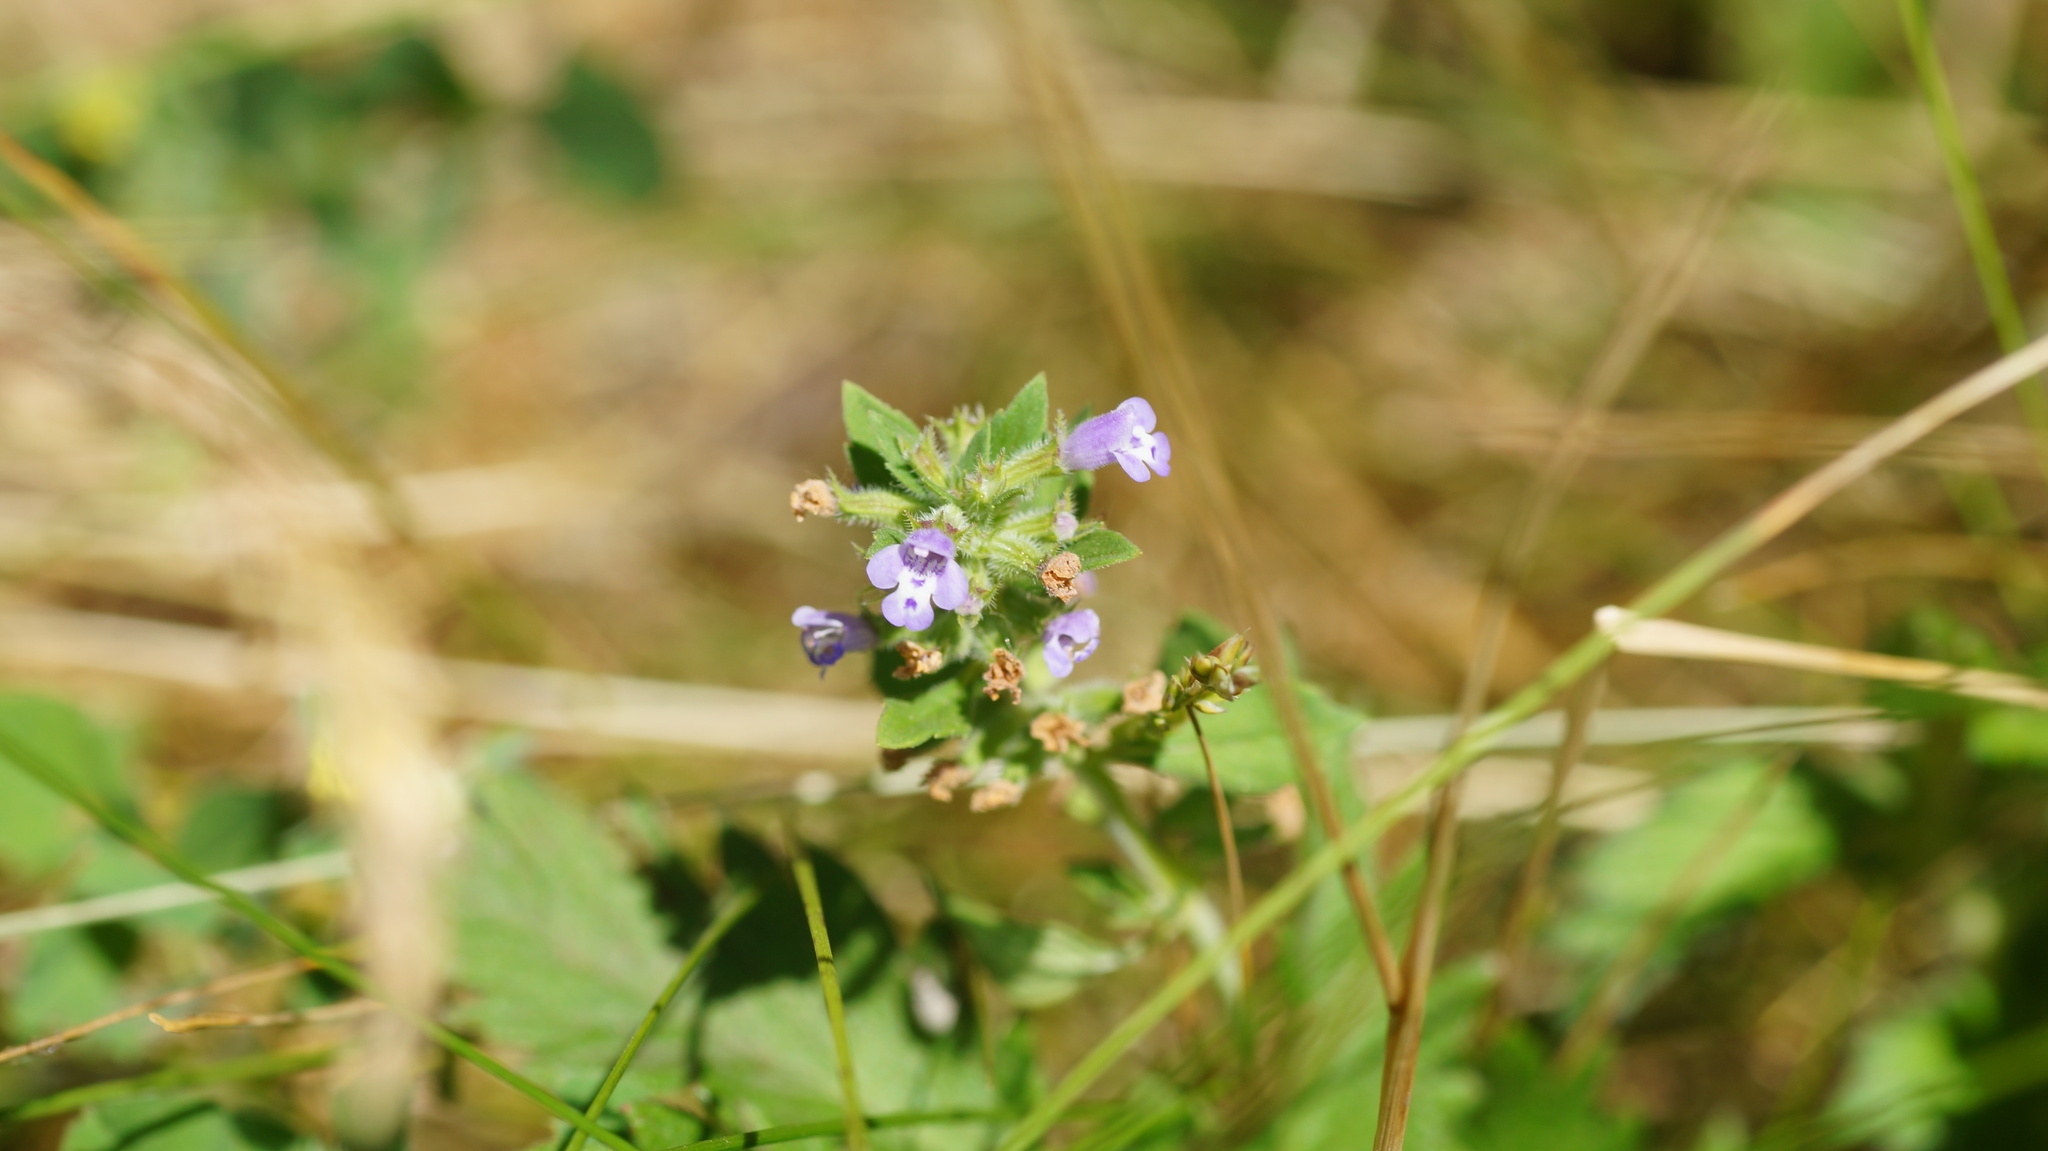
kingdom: Plantae
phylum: Tracheophyta
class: Magnoliopsida
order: Lamiales
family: Lamiaceae
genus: Clinopodium
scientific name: Clinopodium acinos
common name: Basil thyme
